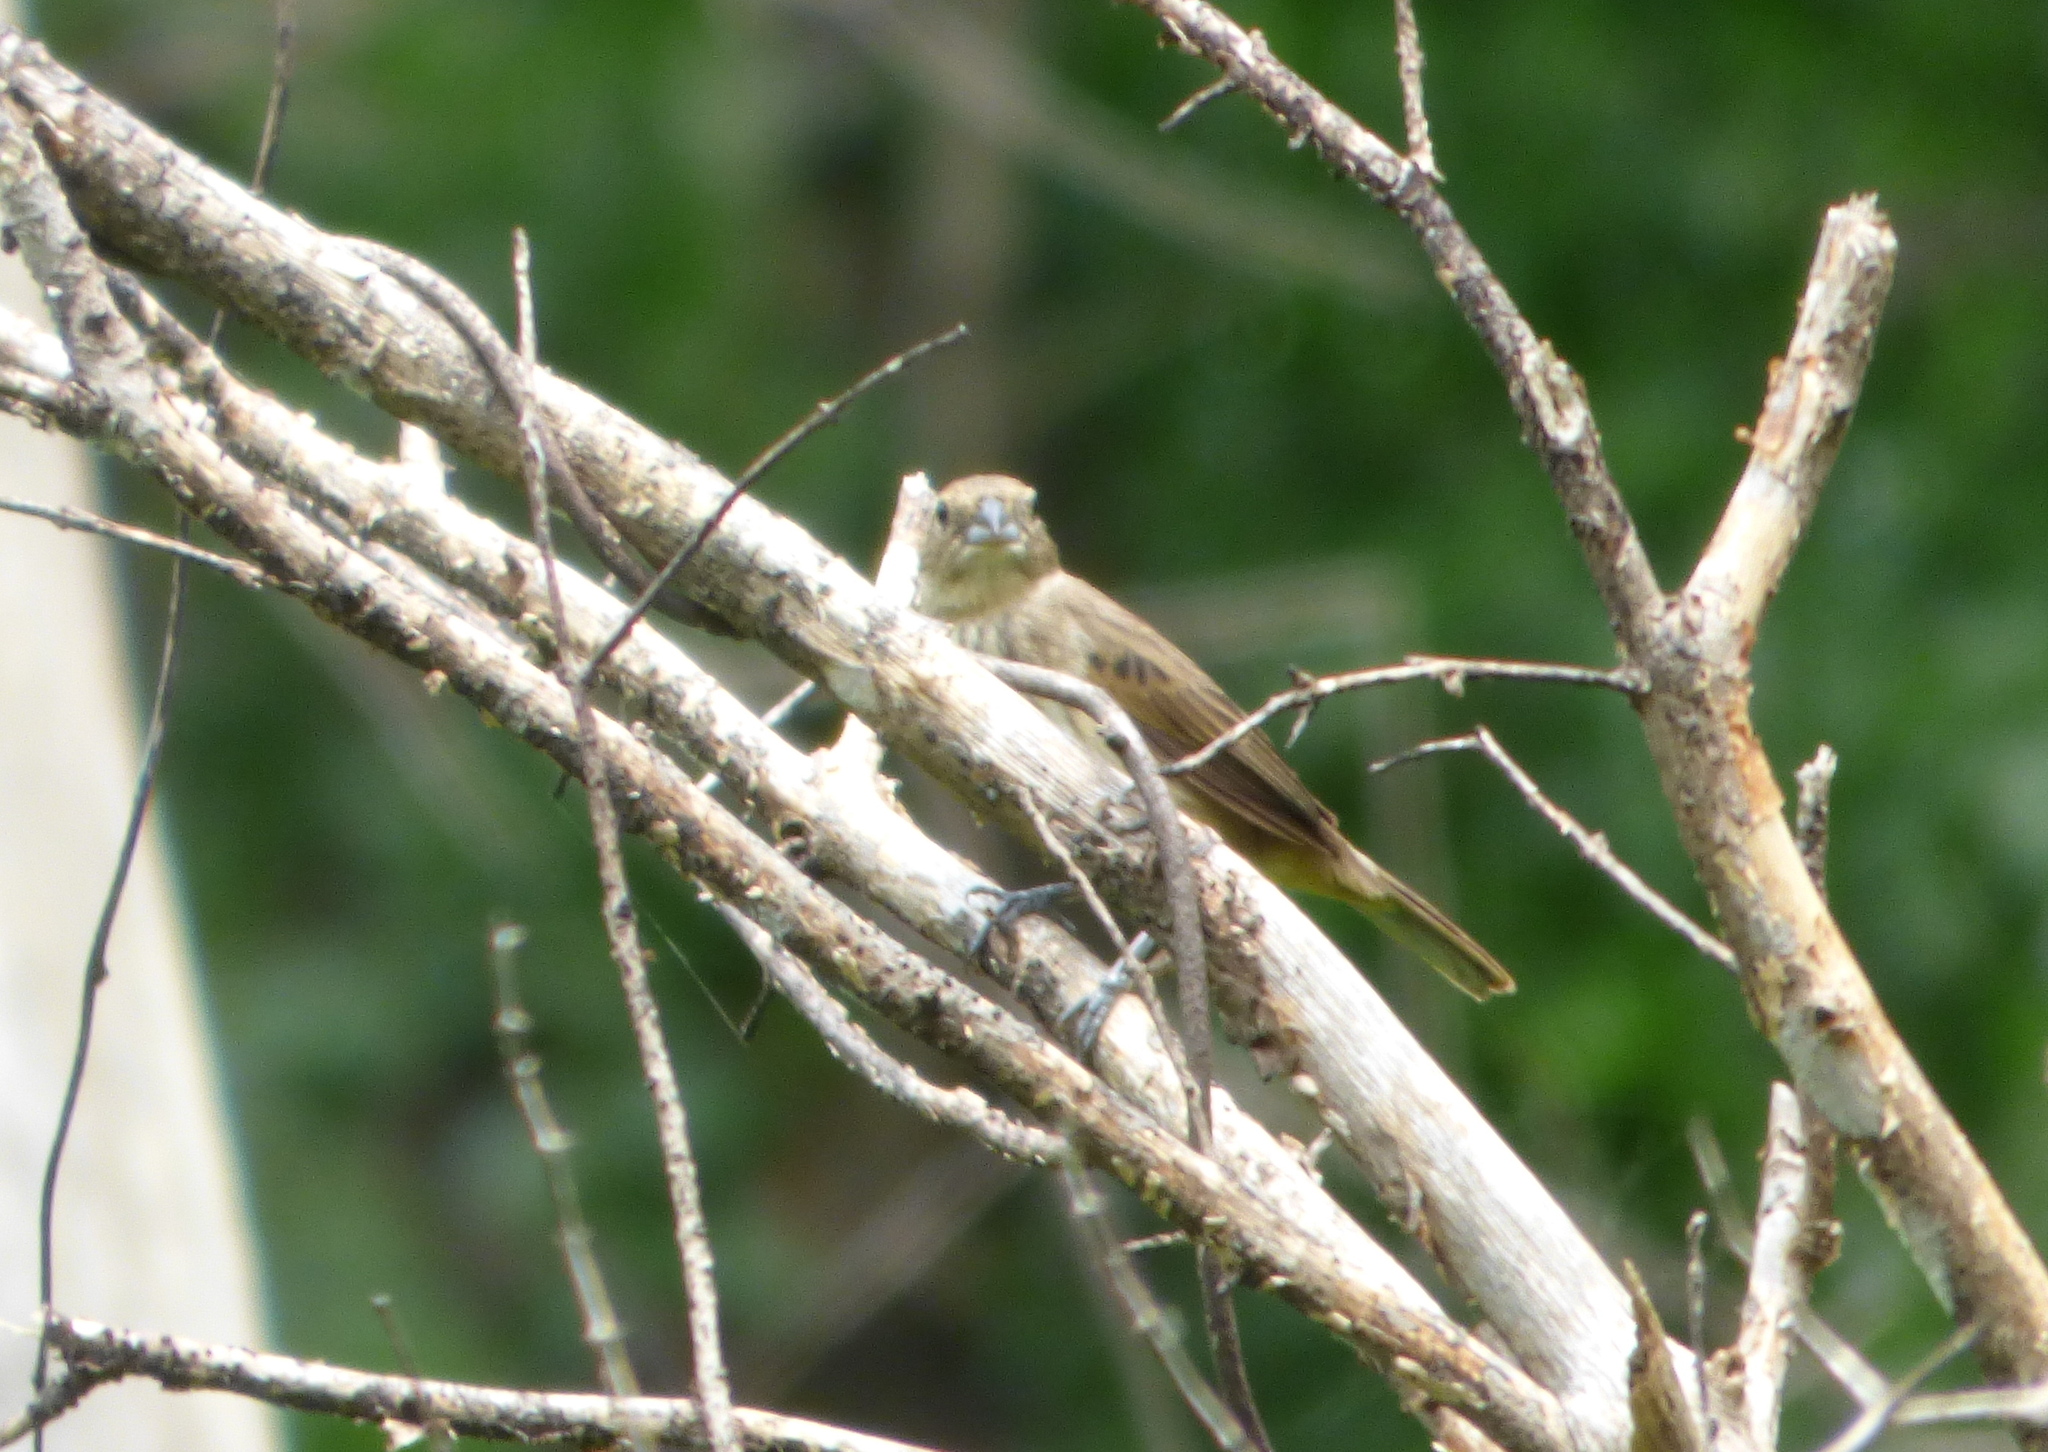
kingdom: Animalia
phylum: Chordata
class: Aves
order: Passeriformes
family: Thraupidae
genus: Volatinia
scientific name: Volatinia jacarina
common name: Blue-black grassquit
